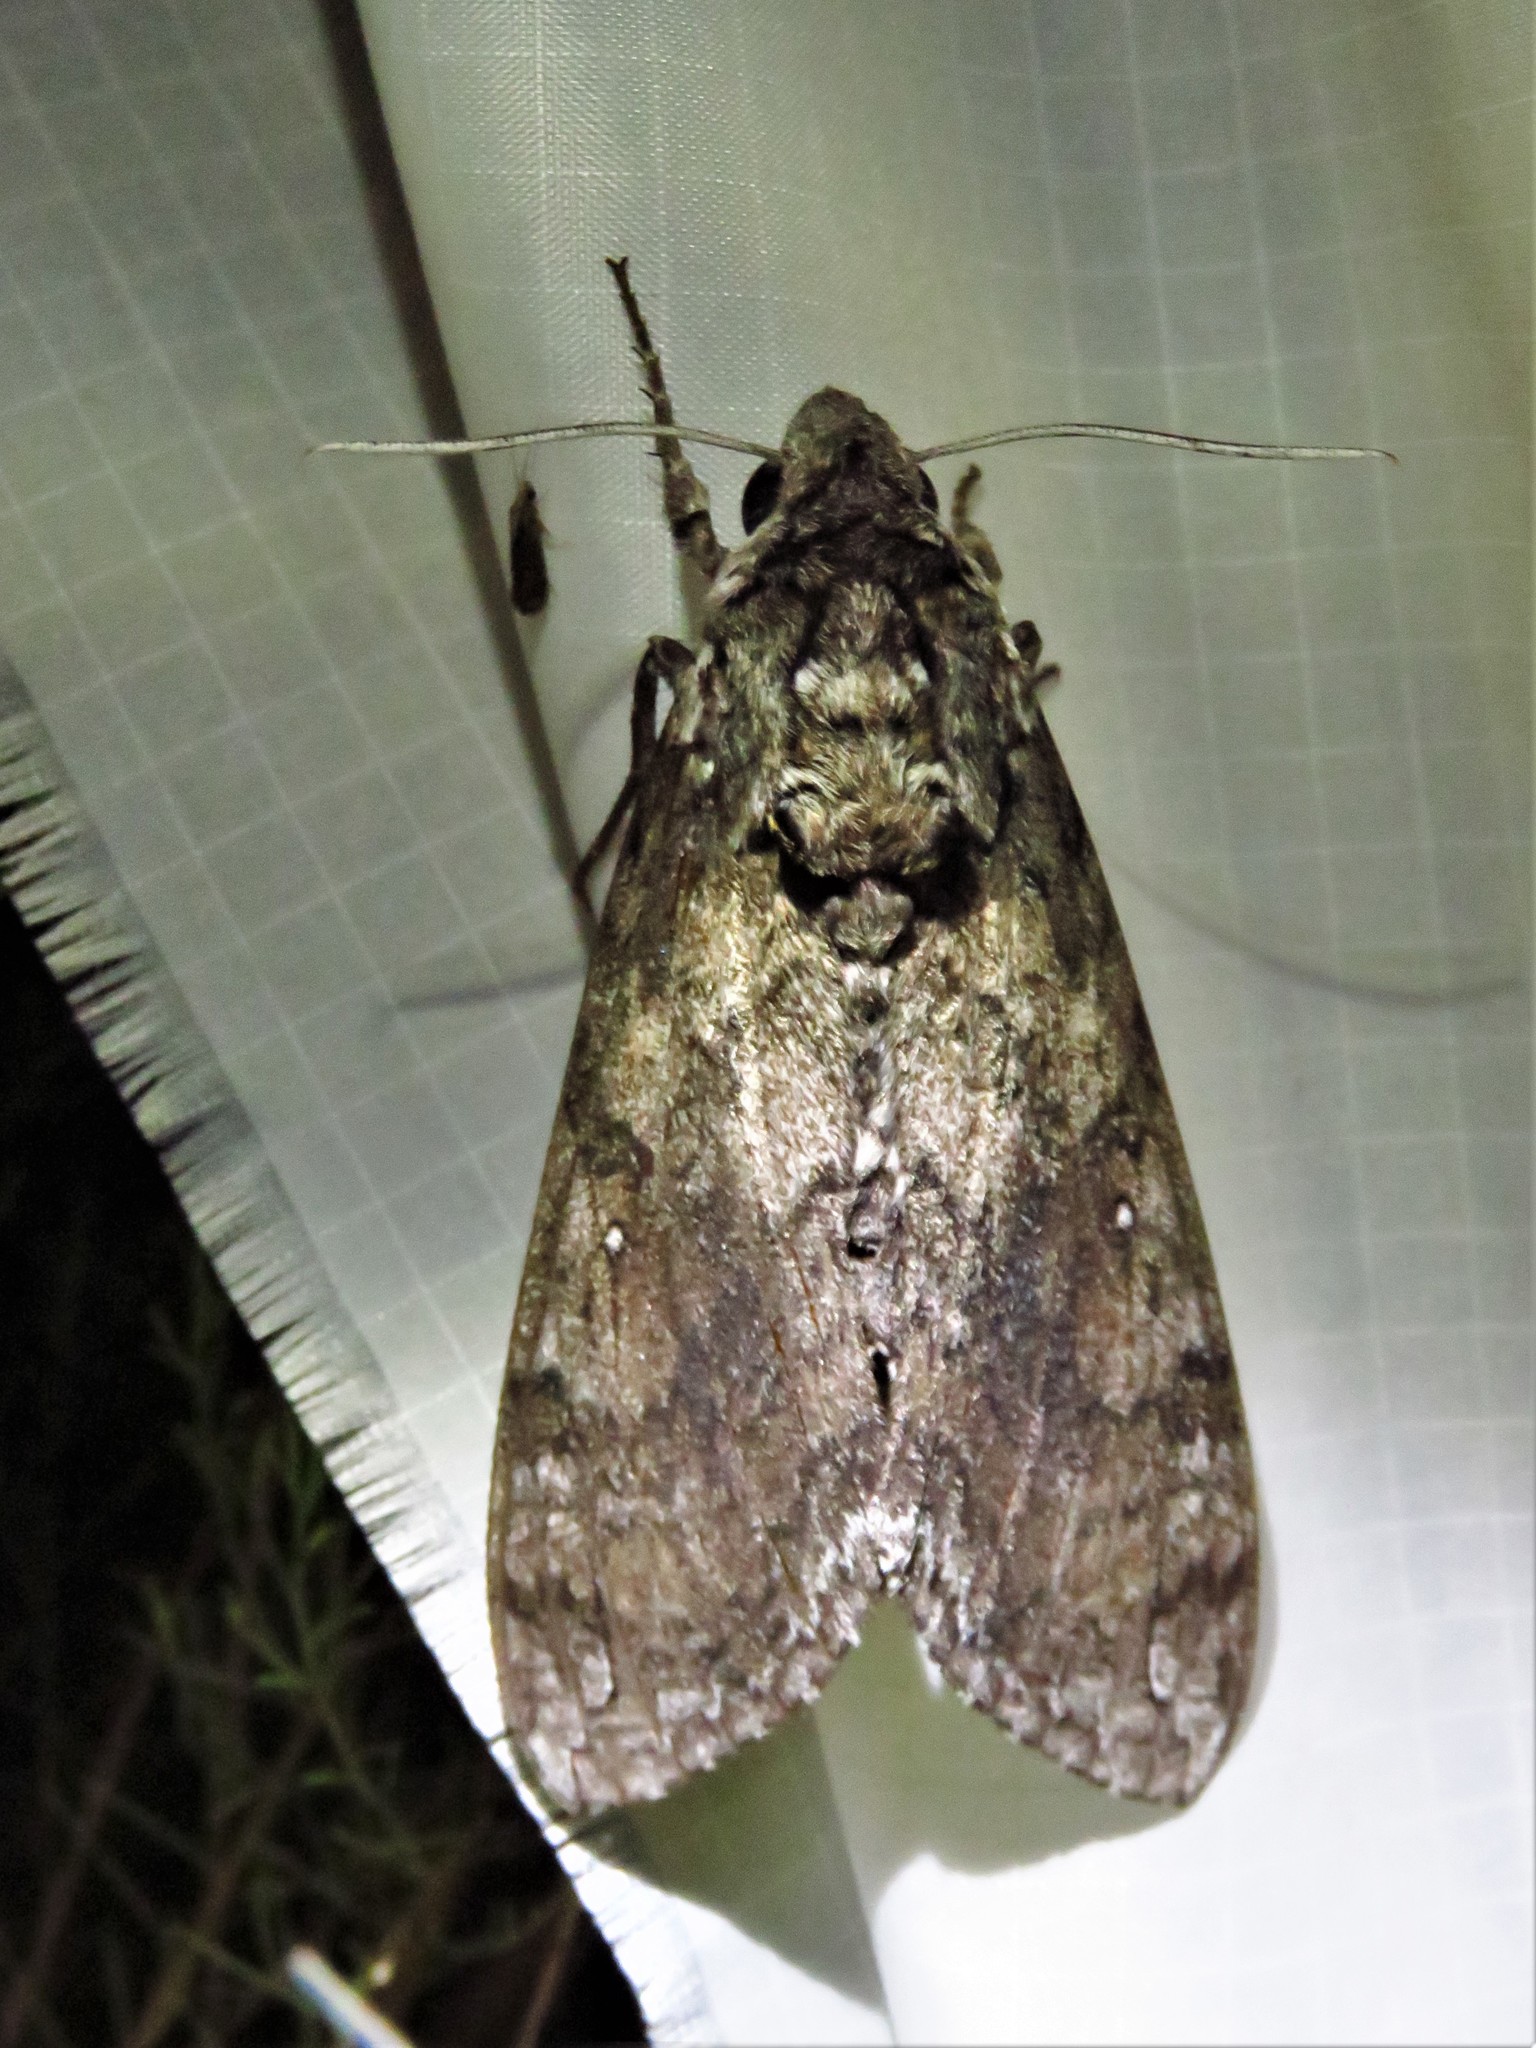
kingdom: Animalia
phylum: Arthropoda
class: Insecta
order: Lepidoptera
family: Sphingidae
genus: Manduca
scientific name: Manduca sexta
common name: Carolina sphinx
